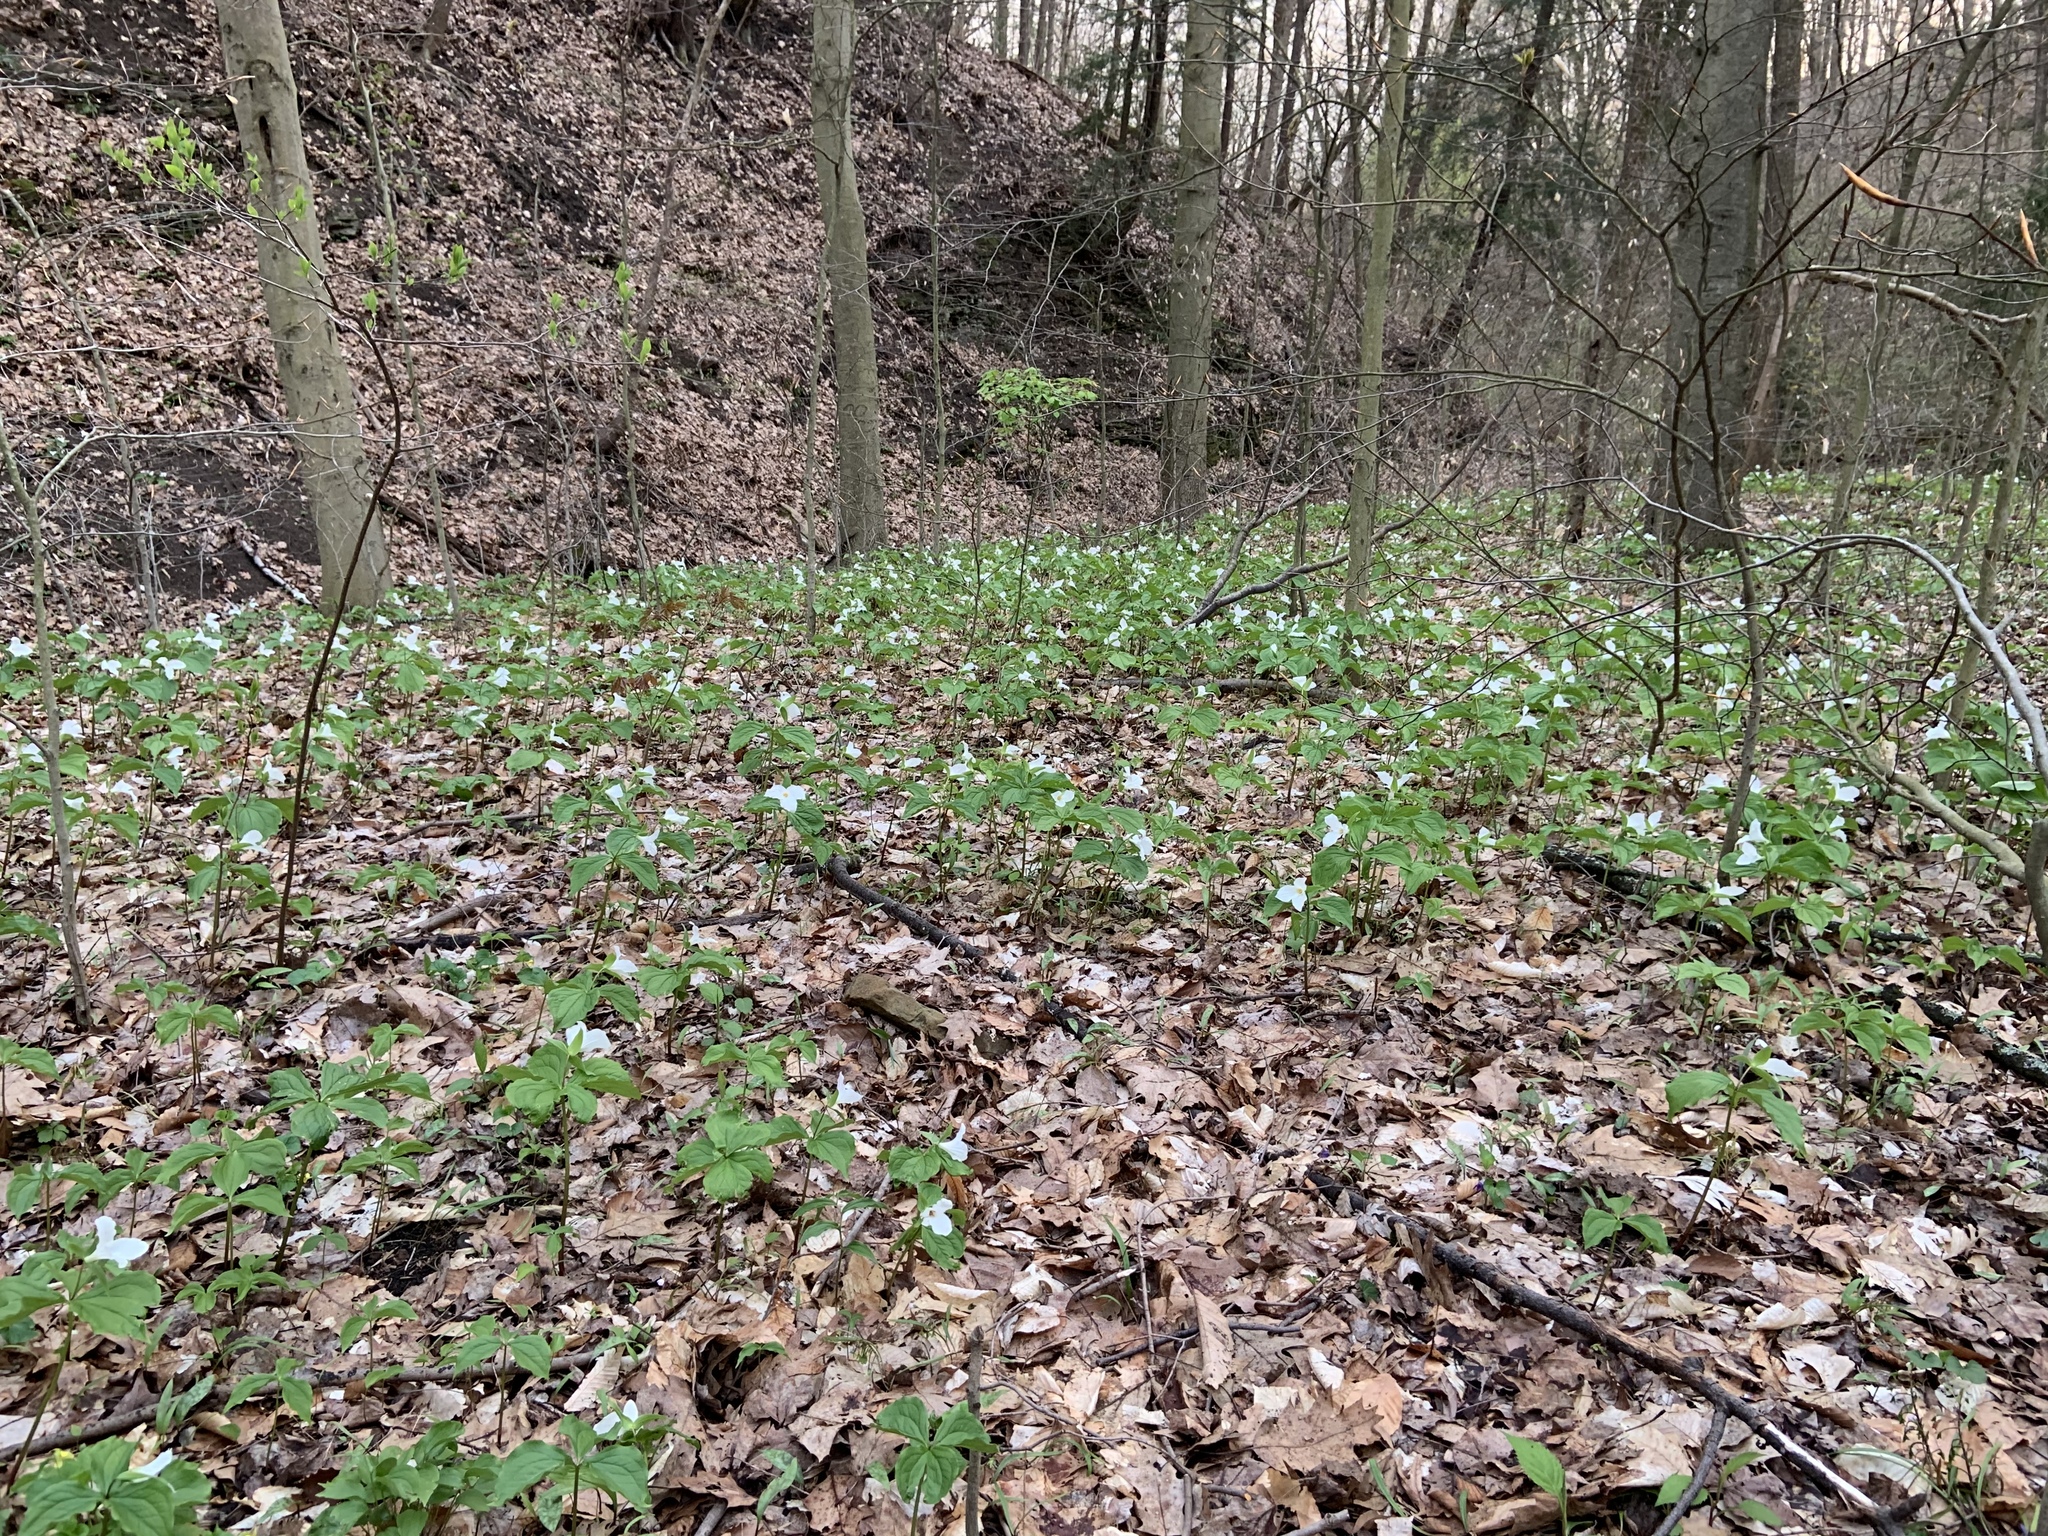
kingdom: Plantae
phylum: Tracheophyta
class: Liliopsida
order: Liliales
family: Melanthiaceae
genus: Trillium
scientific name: Trillium grandiflorum
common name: Great white trillium
